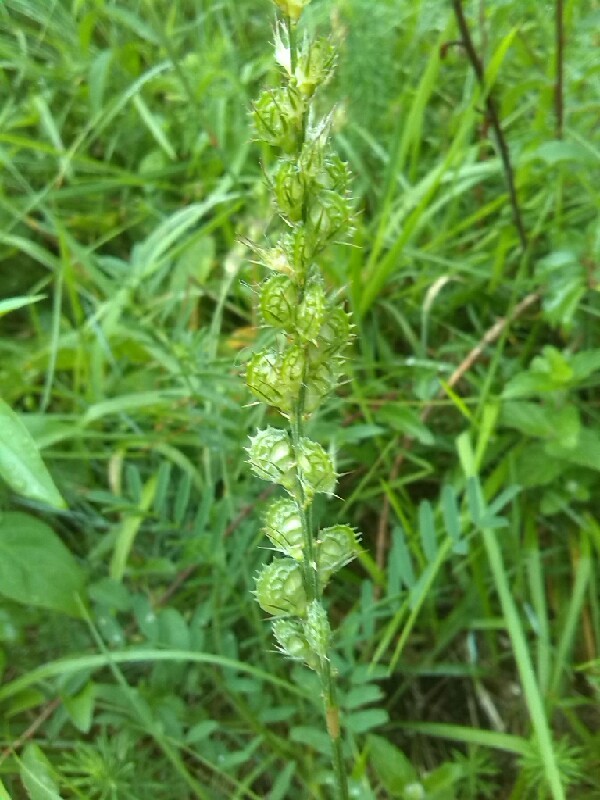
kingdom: Plantae
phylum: Tracheophyta
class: Magnoliopsida
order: Fabales
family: Fabaceae
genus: Onobrychis
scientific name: Onobrychis viciifolia
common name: Sainfoin
